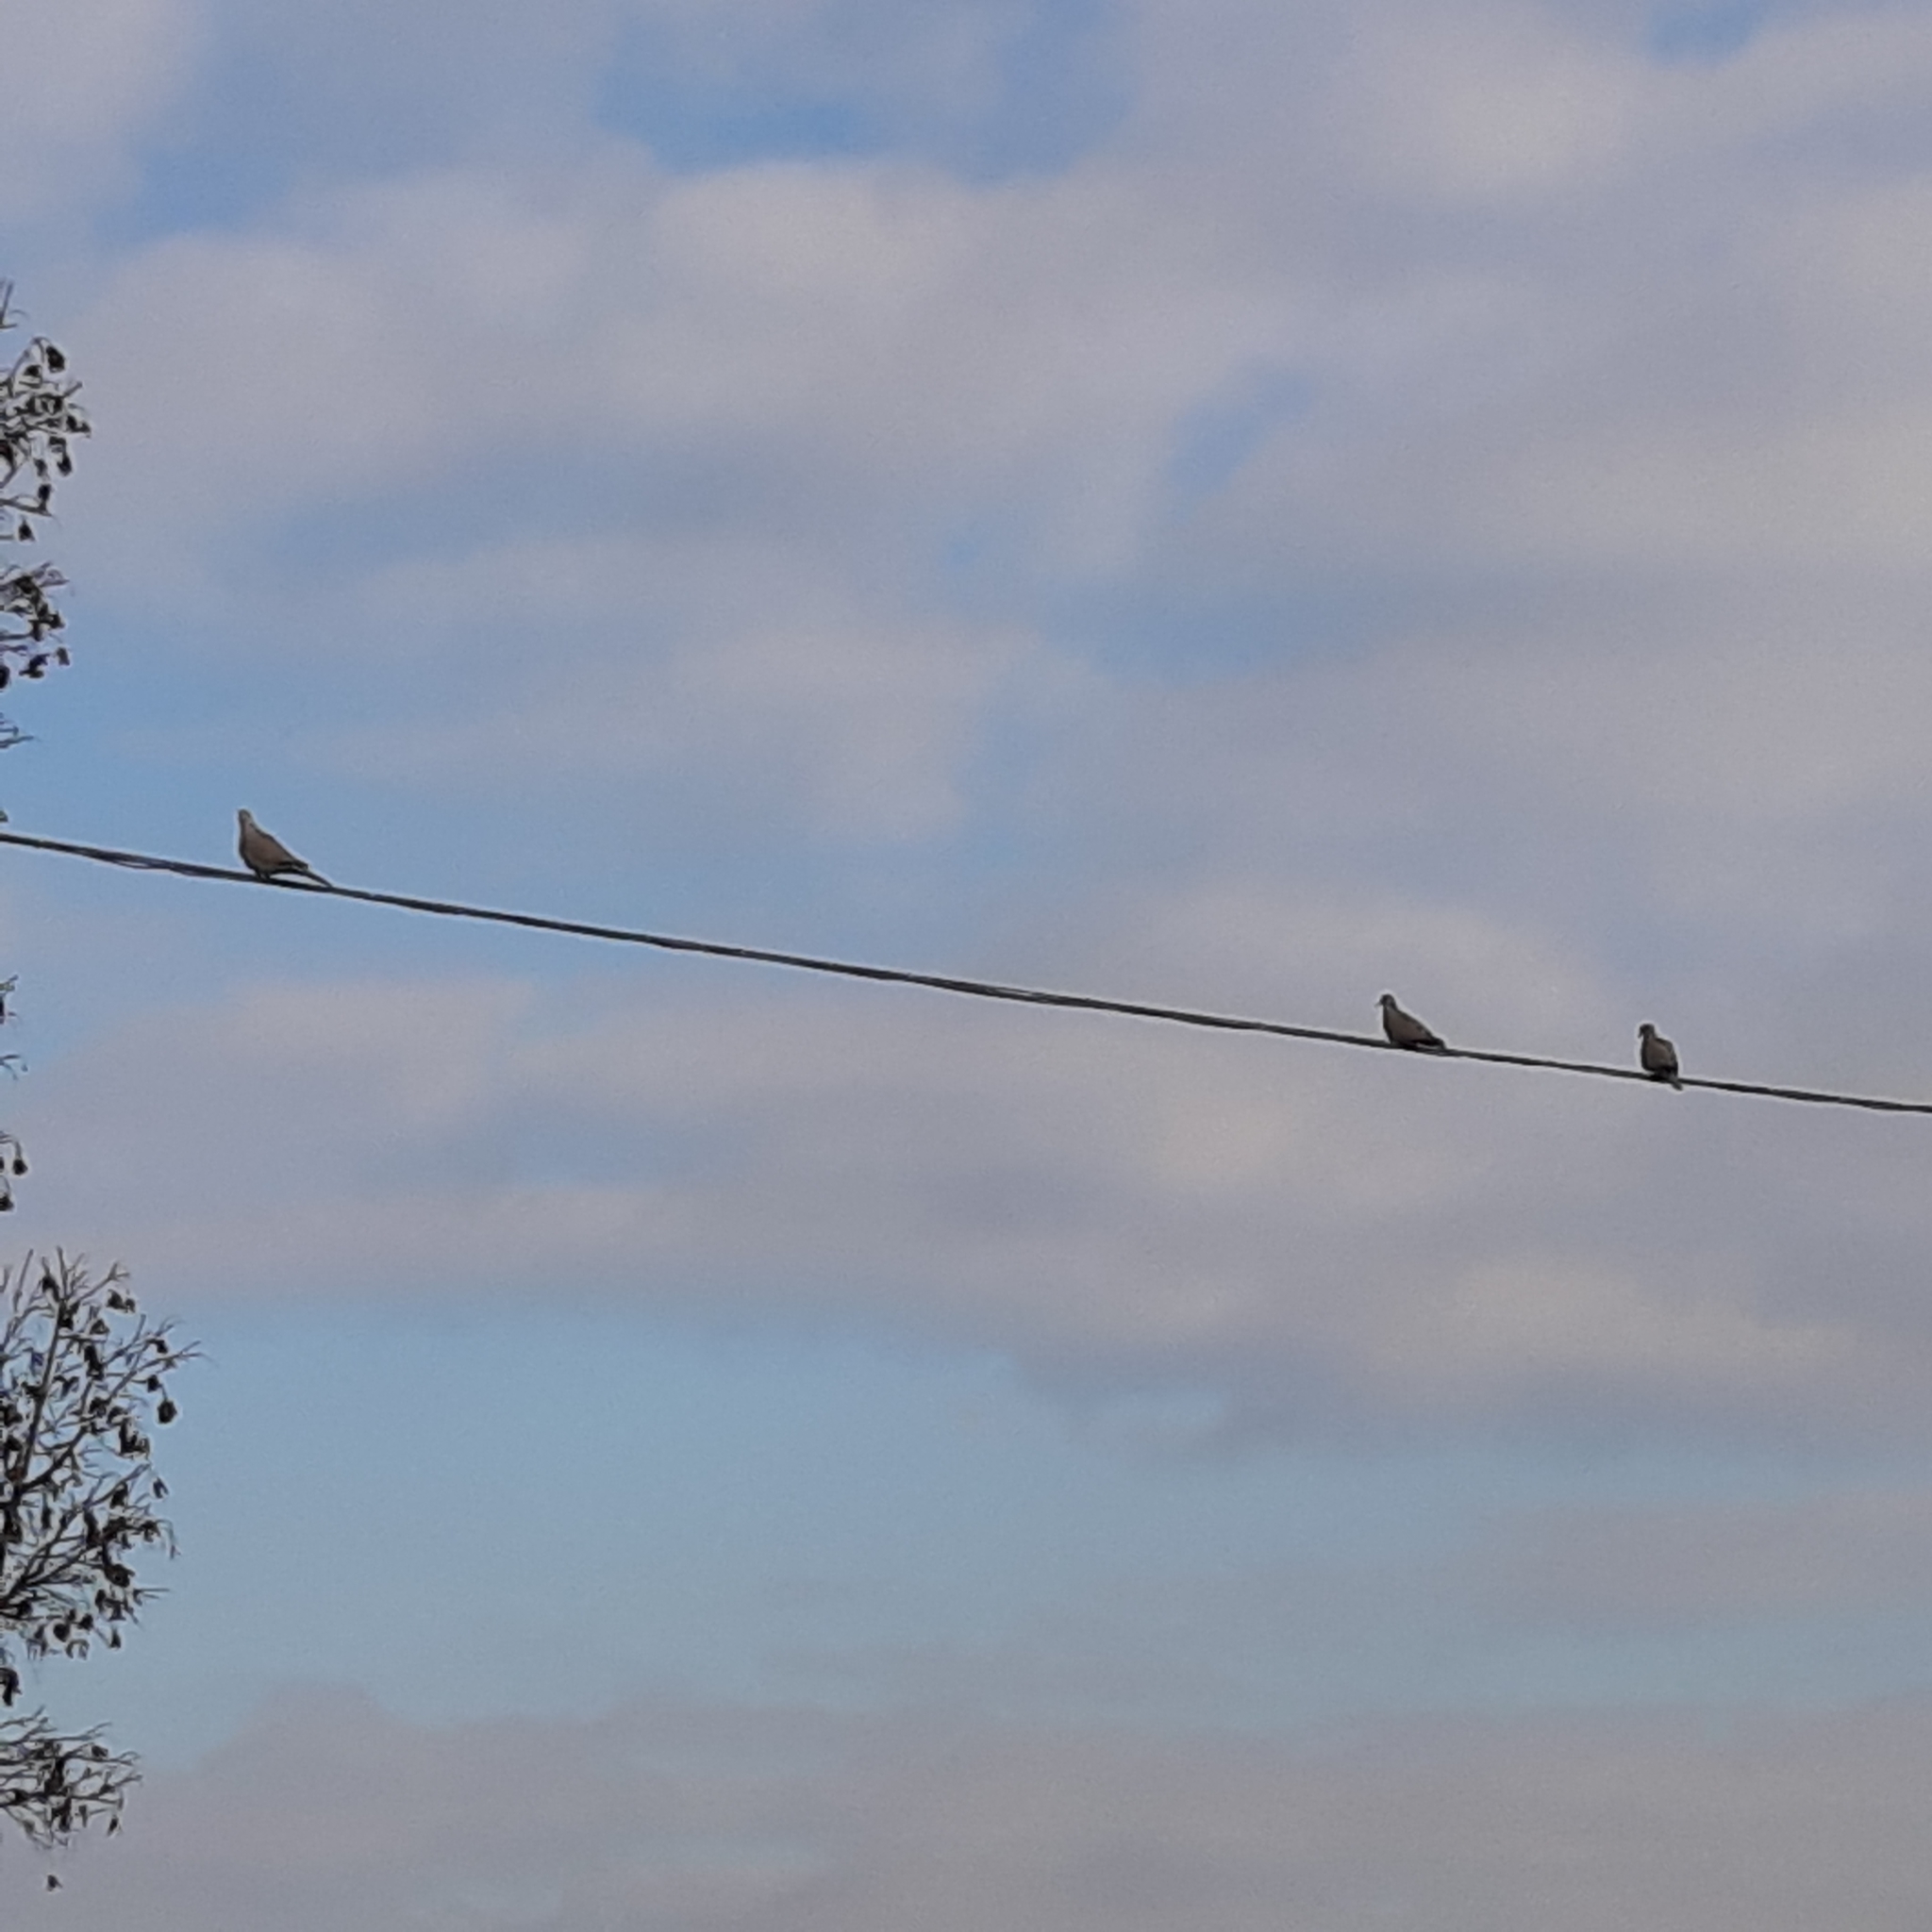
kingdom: Animalia
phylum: Chordata
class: Aves
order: Columbiformes
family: Columbidae
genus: Streptopelia
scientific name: Streptopelia decaocto
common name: Eurasian collared dove
